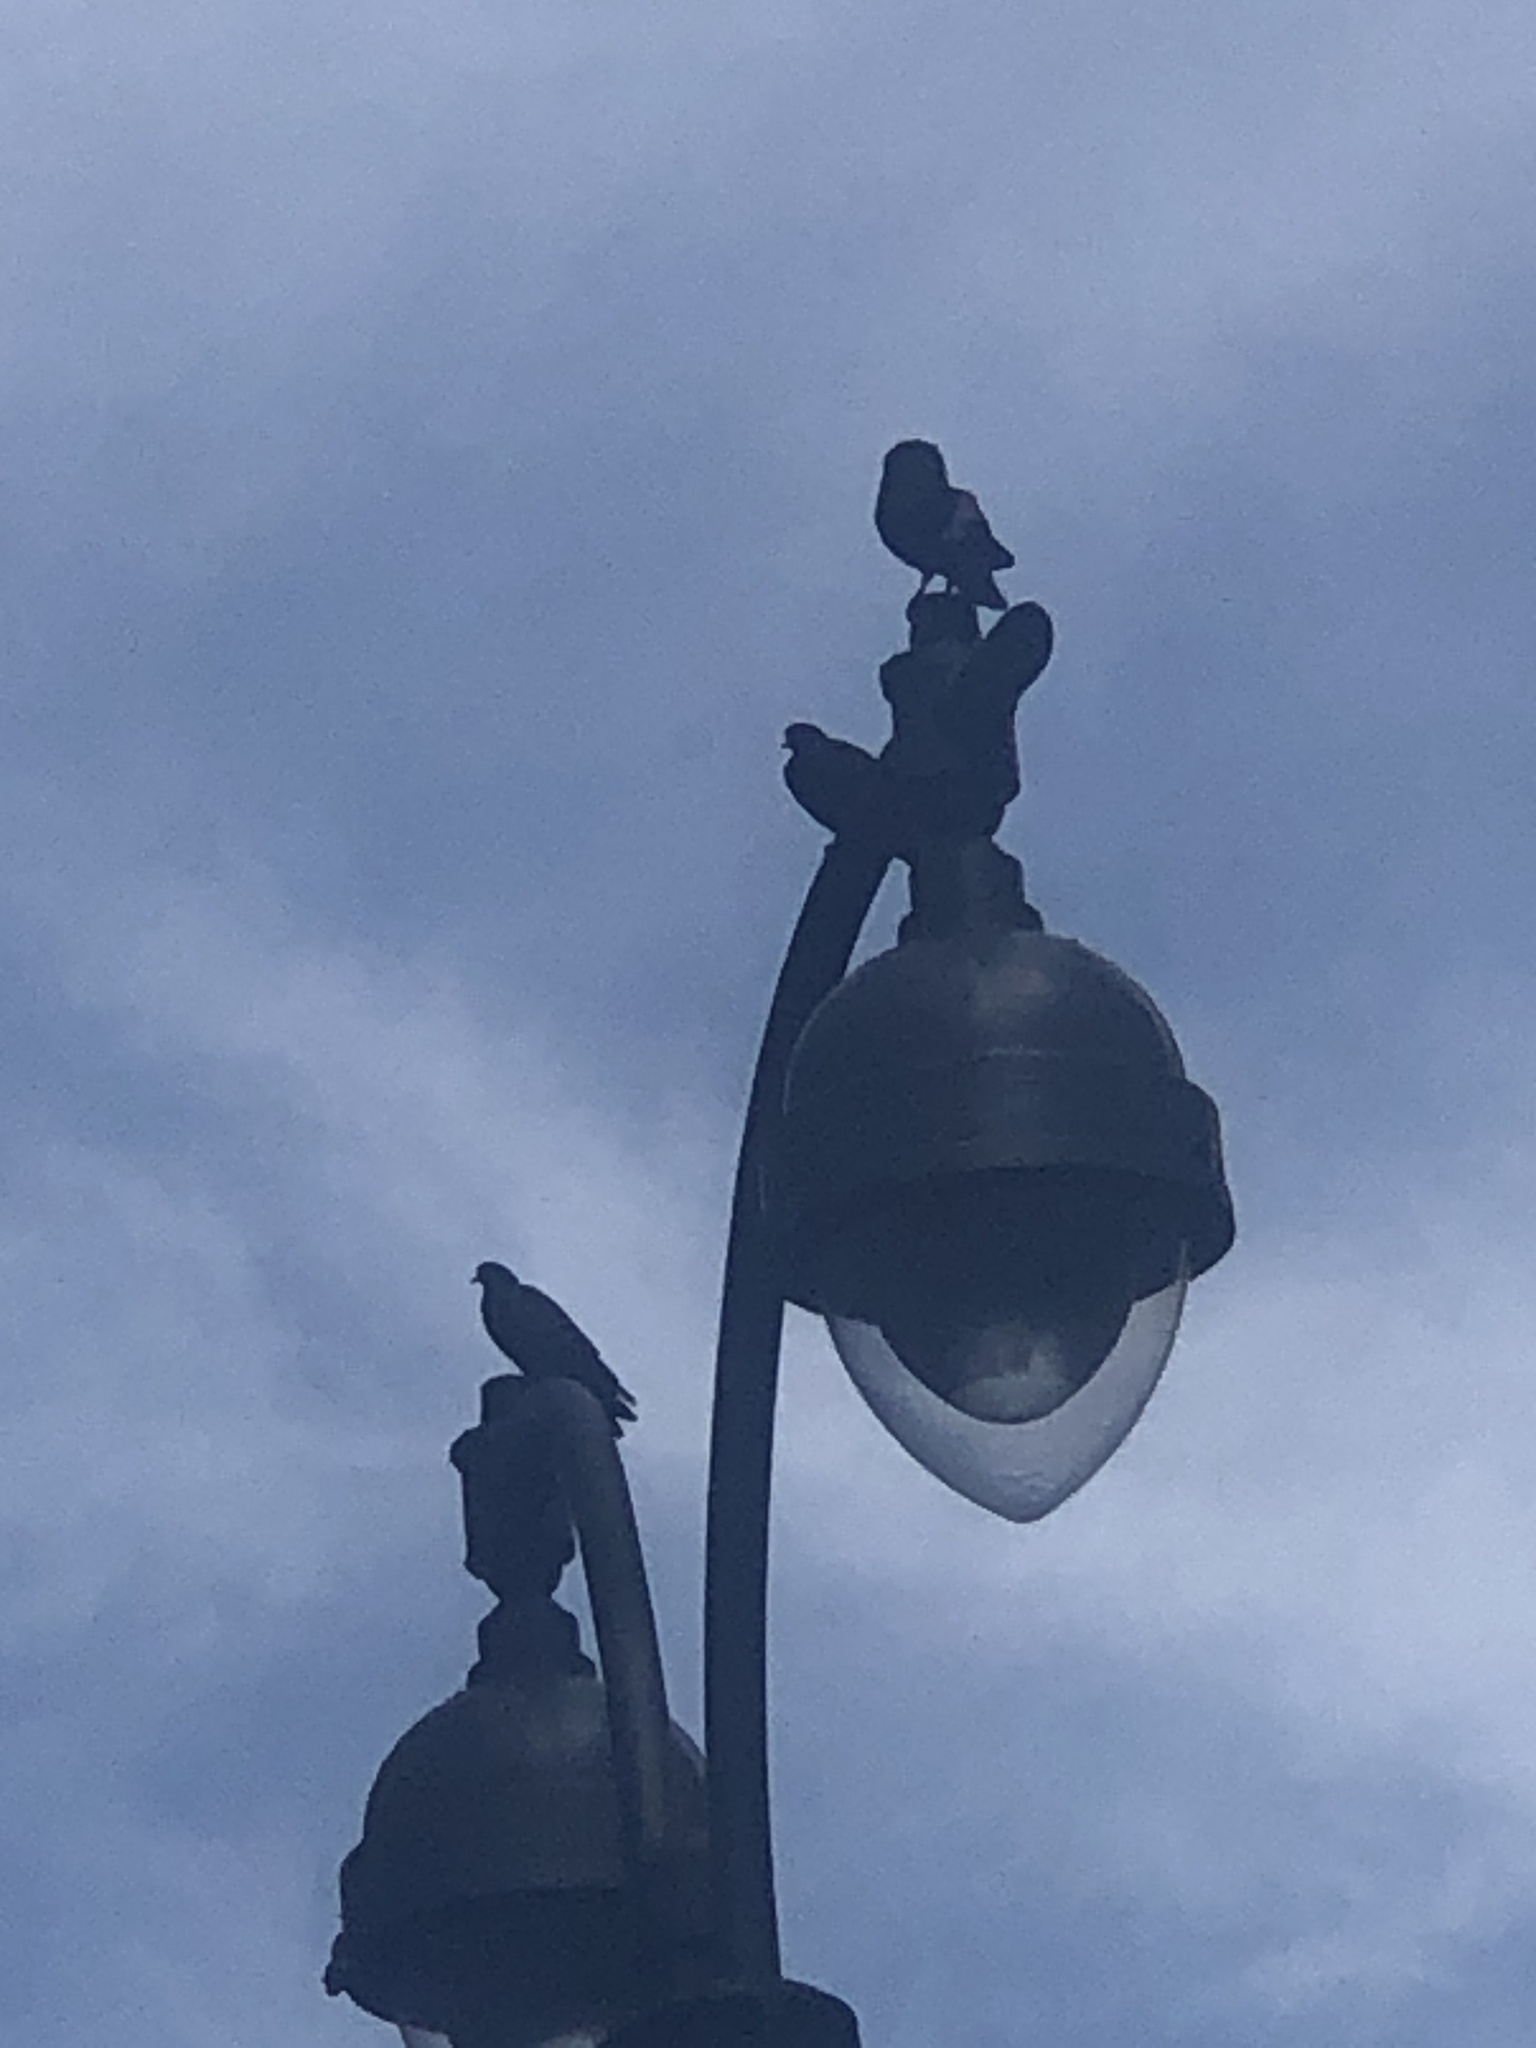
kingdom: Animalia
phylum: Chordata
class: Aves
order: Columbiformes
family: Columbidae
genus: Columba
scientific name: Columba livia
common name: Rock pigeon
